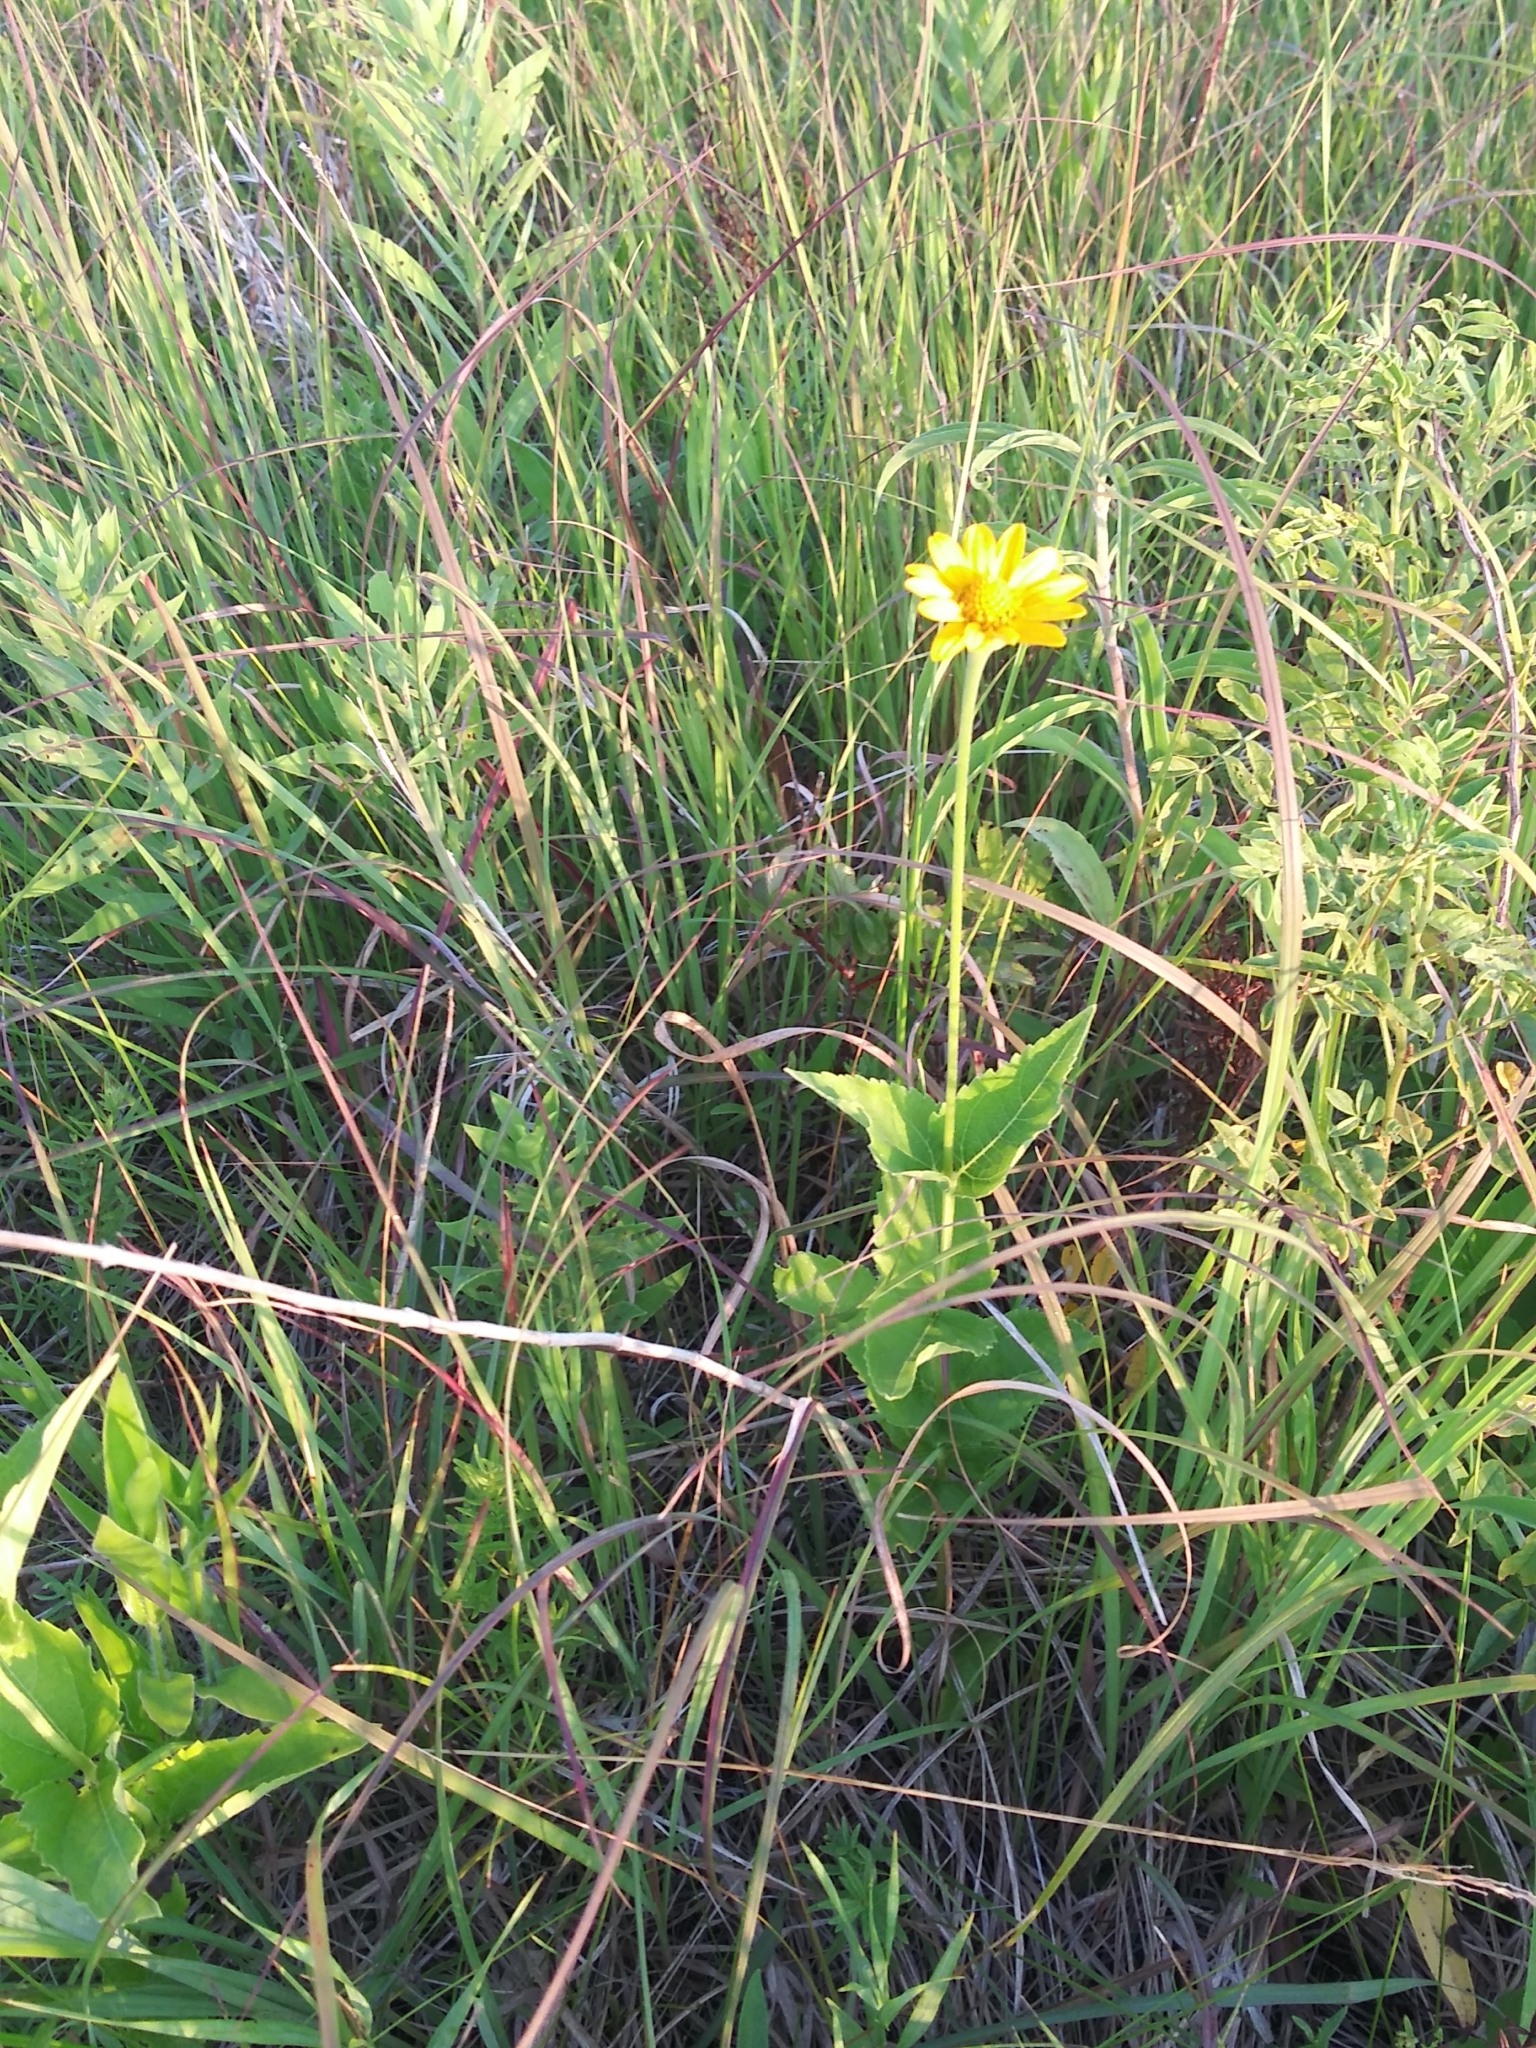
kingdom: Plantae
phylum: Tracheophyta
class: Magnoliopsida
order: Asterales
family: Asteraceae
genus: Heliopsis
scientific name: Heliopsis helianthoides
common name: False sunflower
